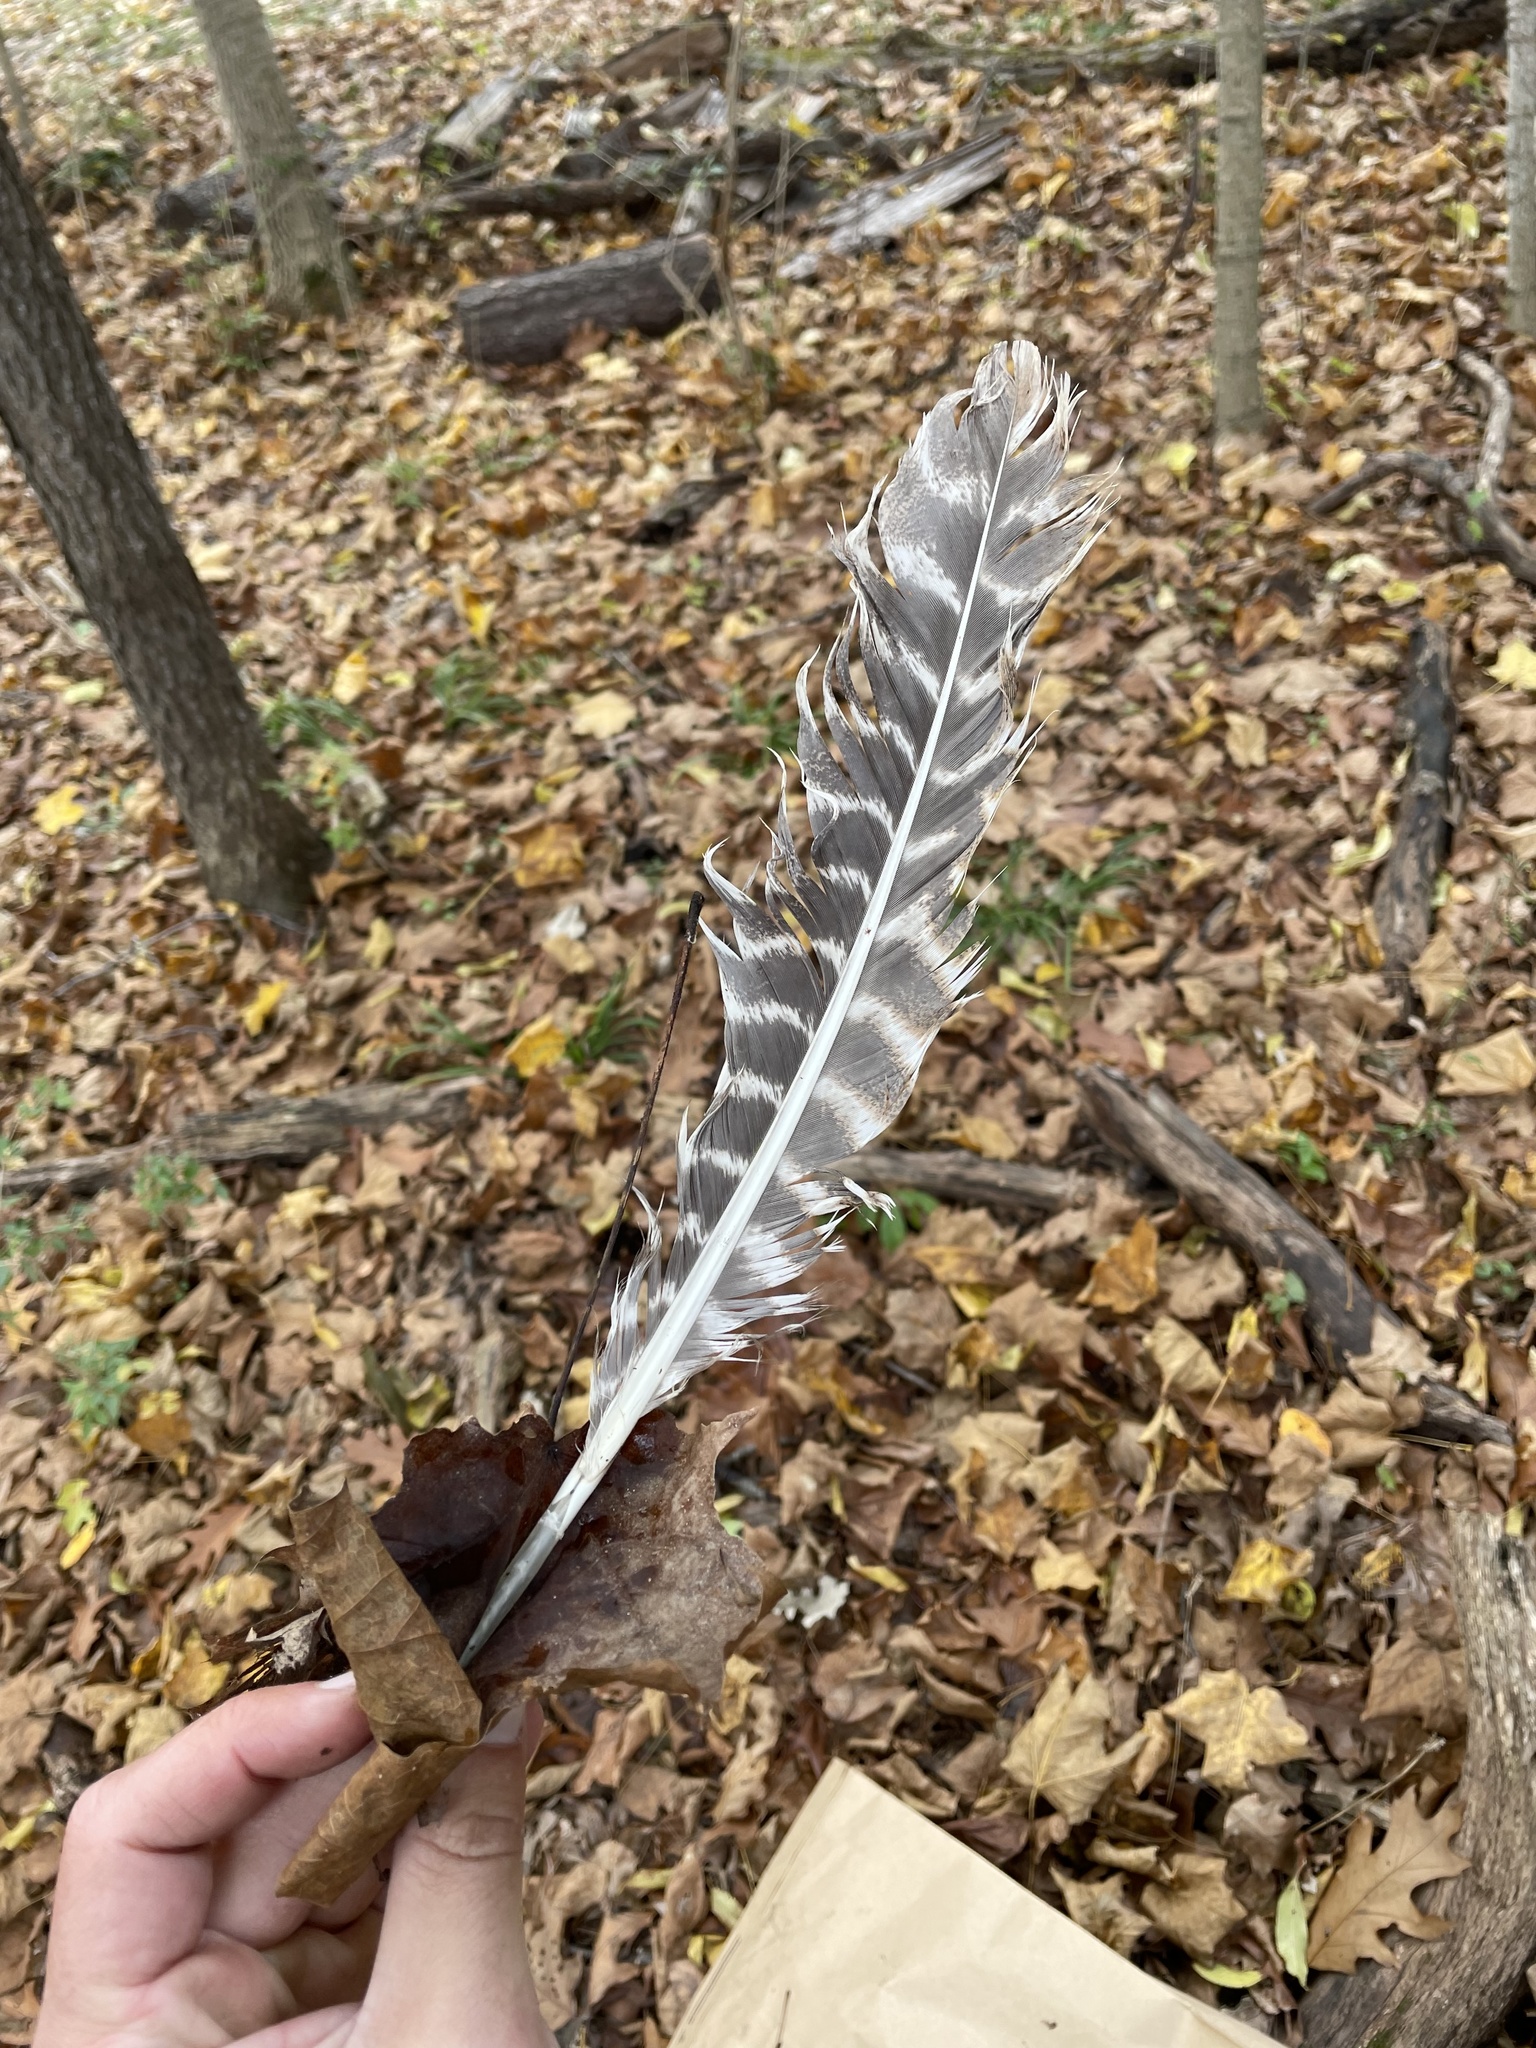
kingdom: Animalia
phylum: Chordata
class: Aves
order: Galliformes
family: Phasianidae
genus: Meleagris
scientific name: Meleagris gallopavo
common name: Wild turkey
